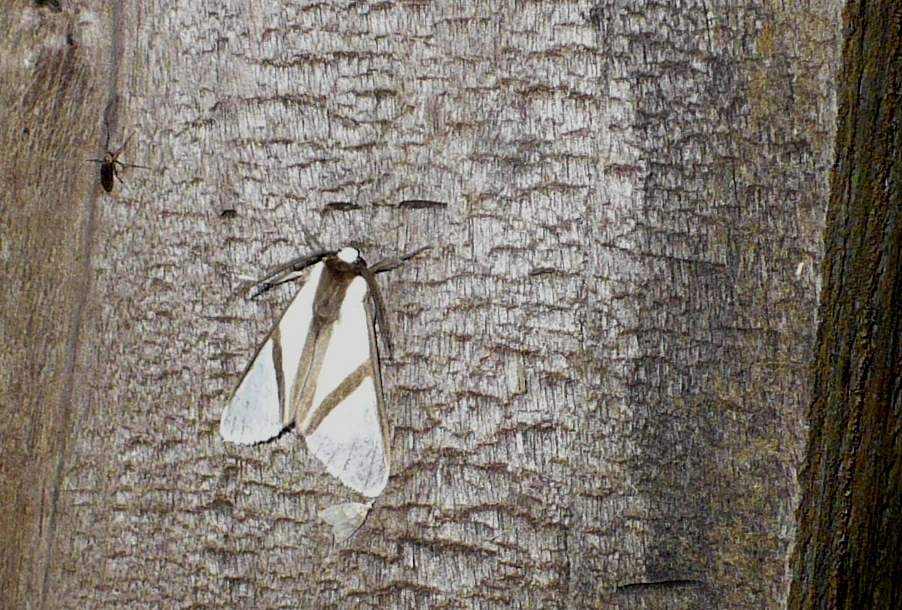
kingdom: Animalia
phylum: Arthropoda
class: Insecta
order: Lepidoptera
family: Erebidae
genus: Turuptiana
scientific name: Turuptiana obliqua
